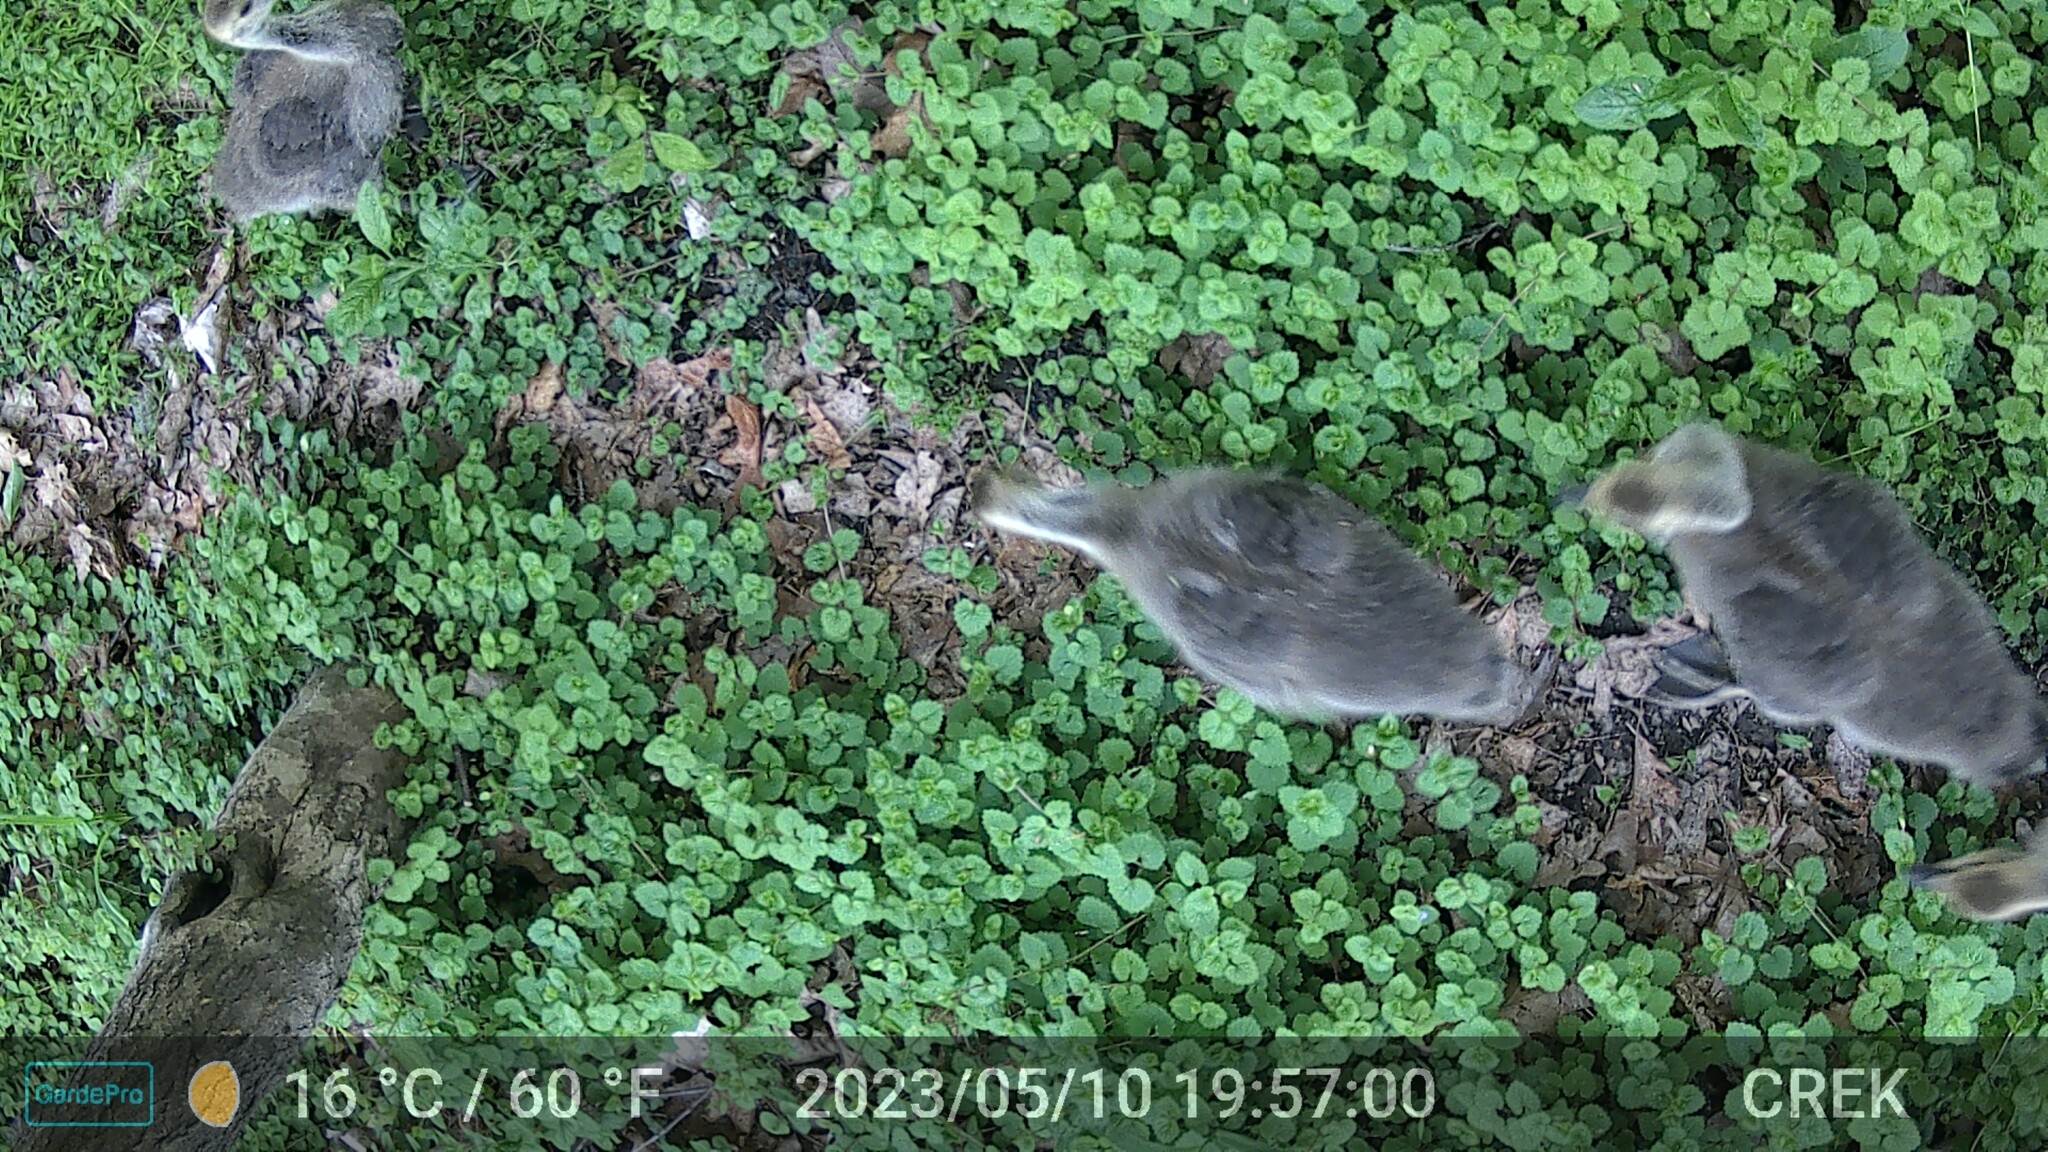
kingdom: Animalia
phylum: Chordata
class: Aves
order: Anseriformes
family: Anatidae
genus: Branta
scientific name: Branta canadensis
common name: Canada goose
